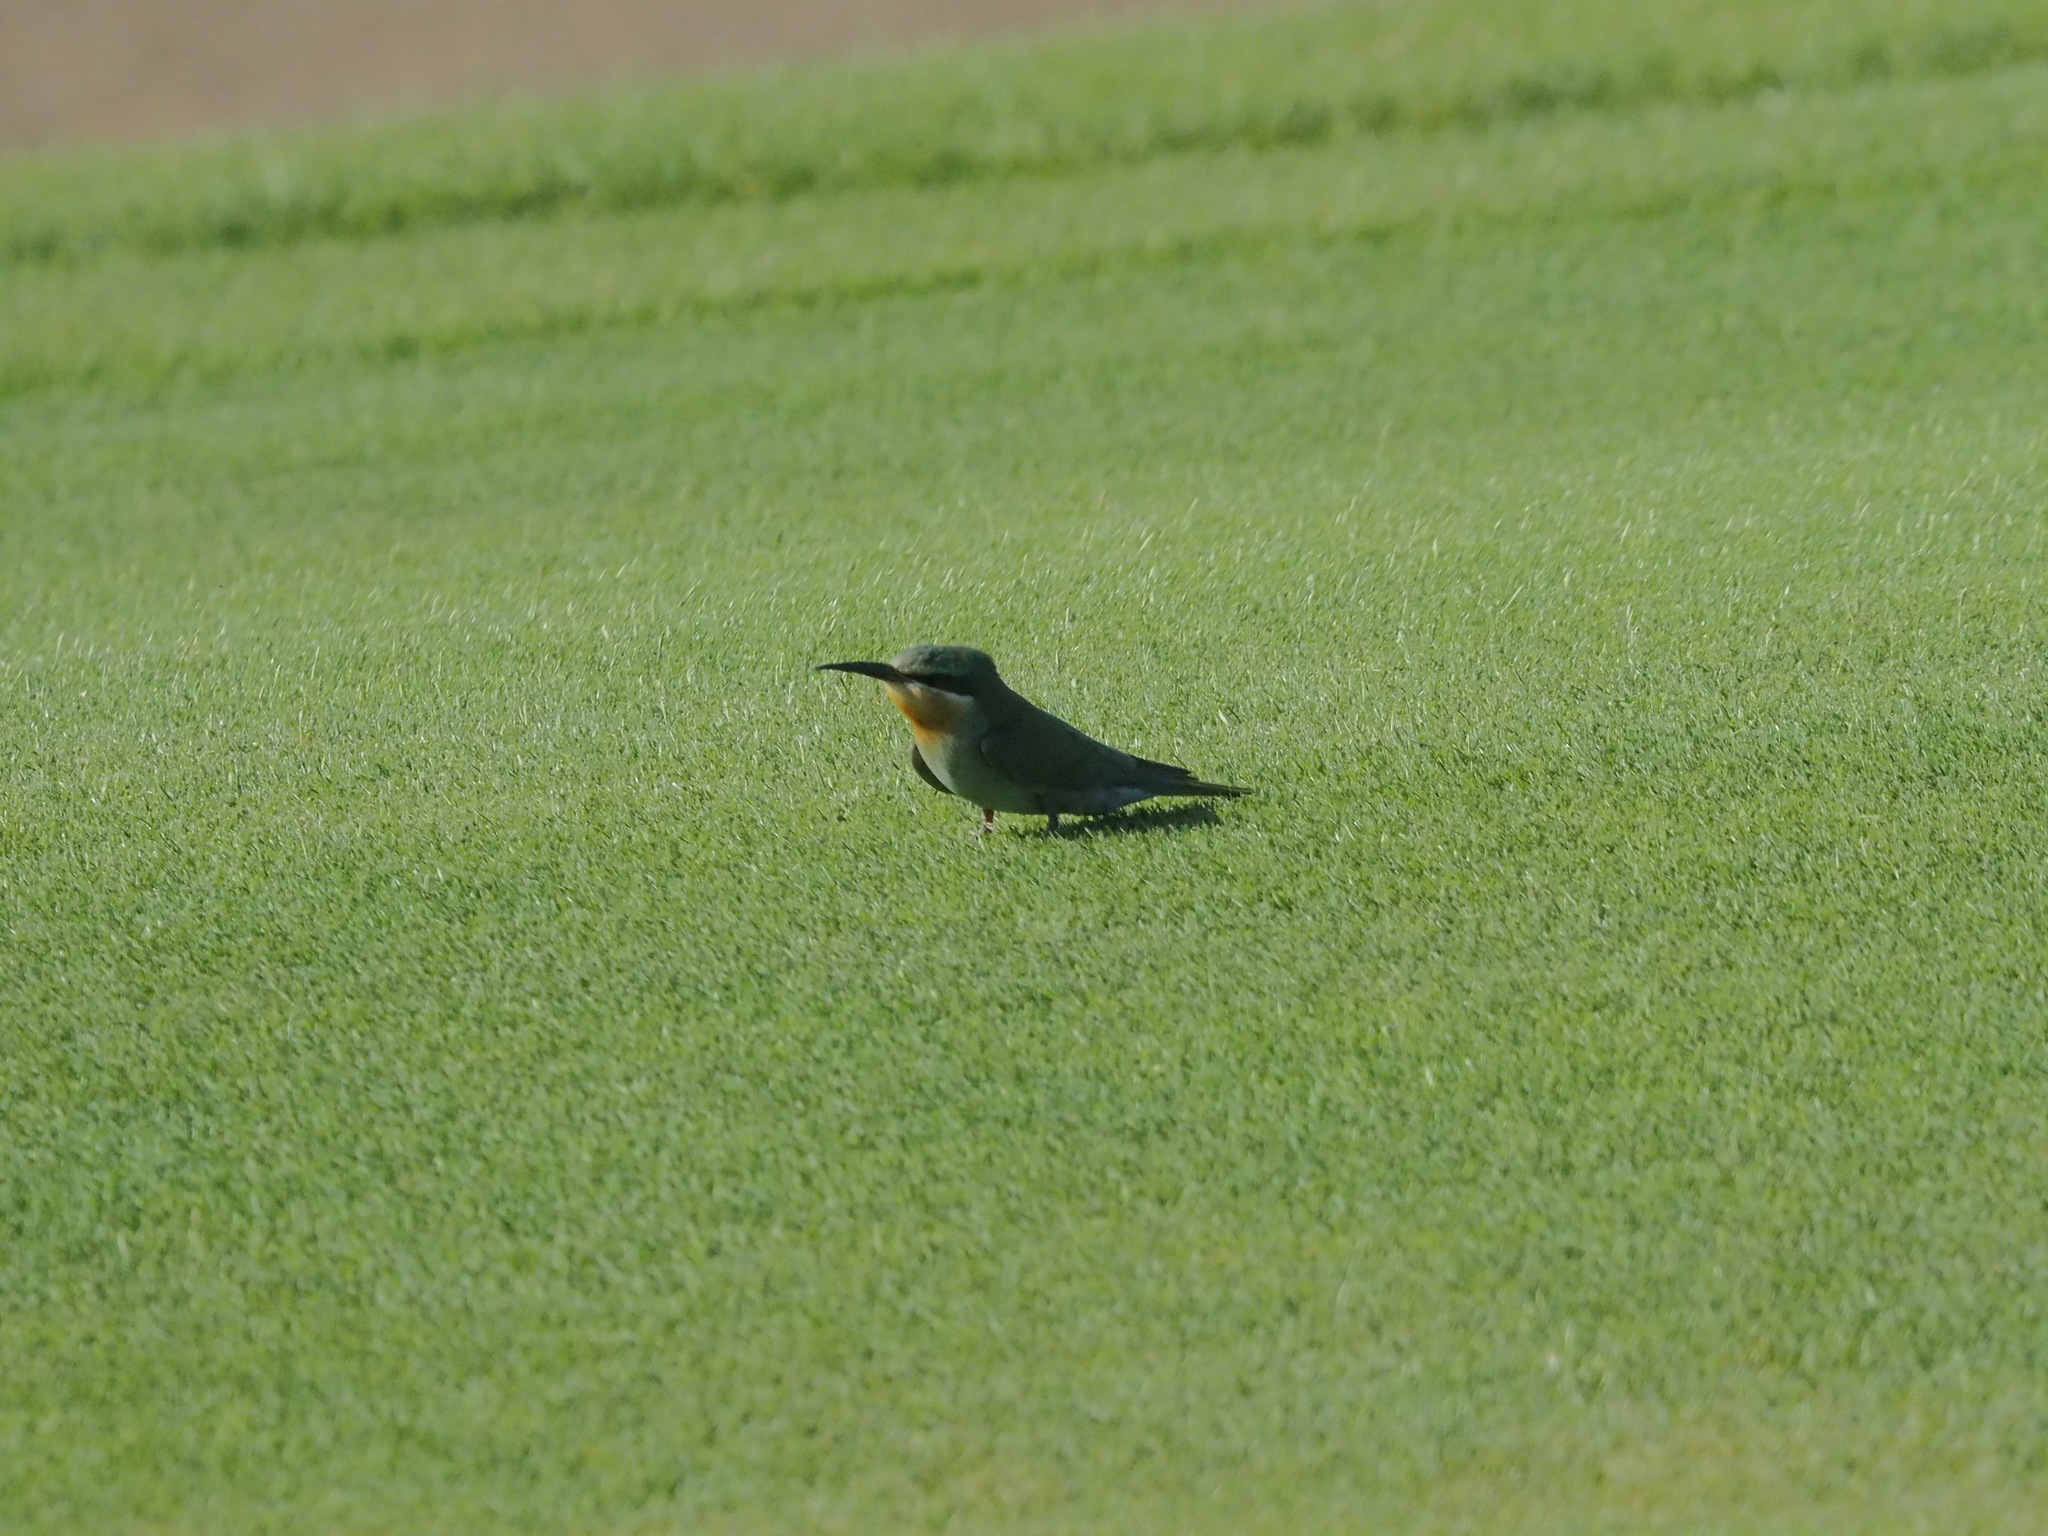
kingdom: Animalia
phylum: Chordata
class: Aves
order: Coraciiformes
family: Meropidae
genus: Merops
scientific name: Merops cyanophrys
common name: Arabian green bee-eater
